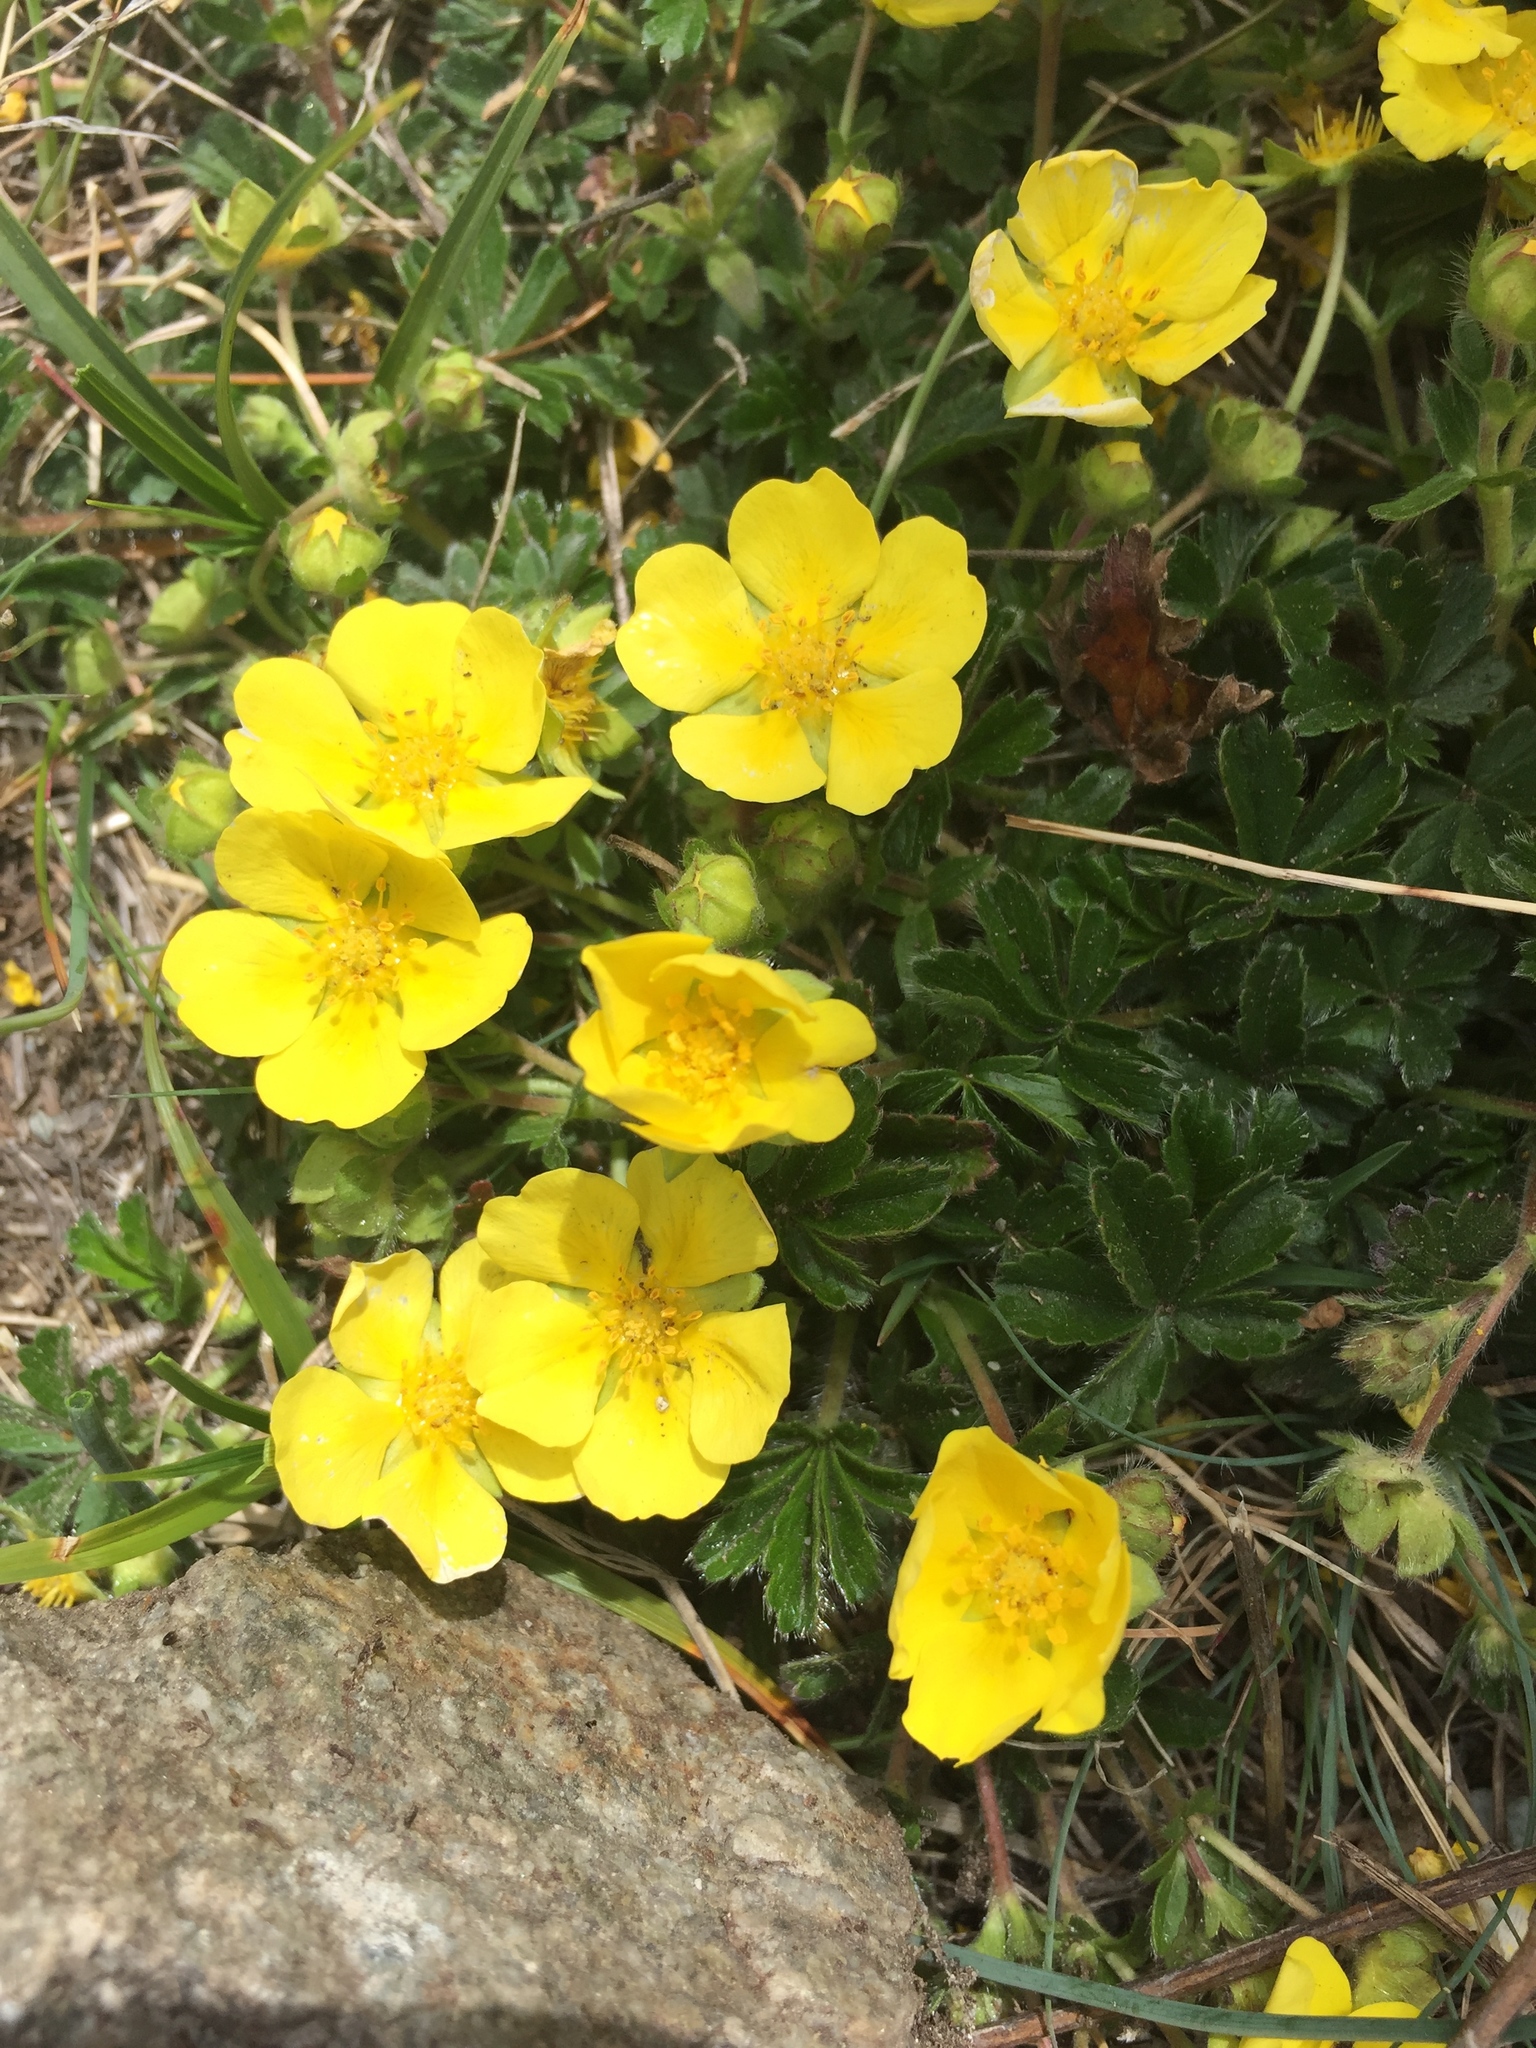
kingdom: Plantae
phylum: Tracheophyta
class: Magnoliopsida
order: Rosales
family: Rosaceae
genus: Potentilla
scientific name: Potentilla pusilla
